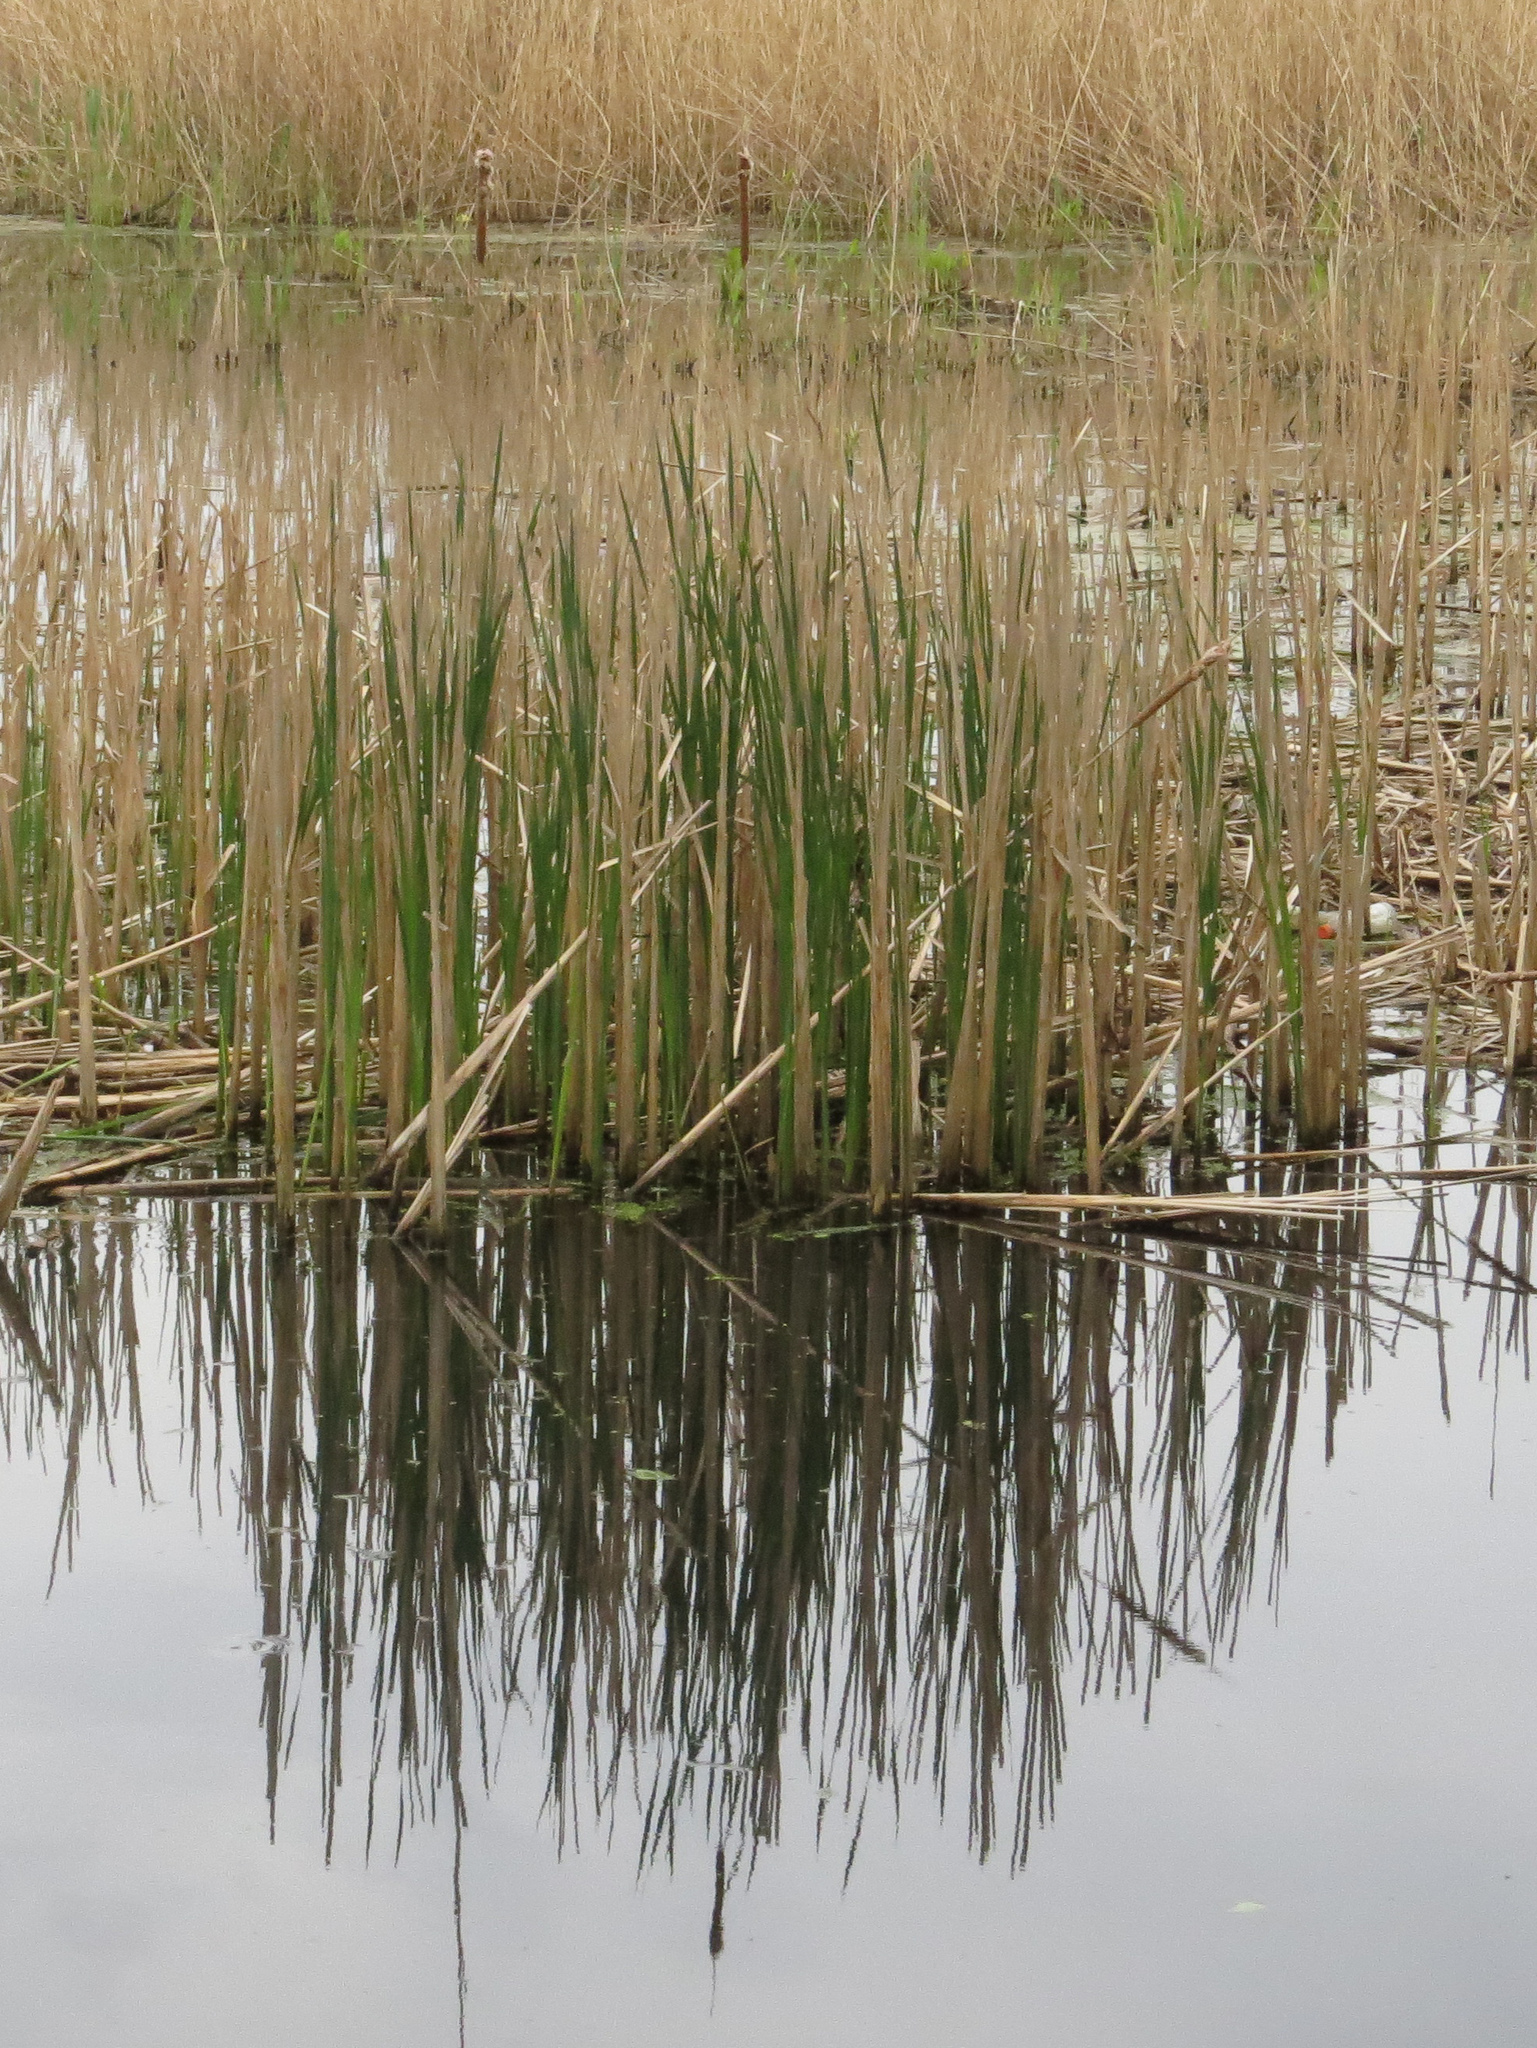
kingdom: Plantae
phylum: Tracheophyta
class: Liliopsida
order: Poales
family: Typhaceae
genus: Typha
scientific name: Typha
